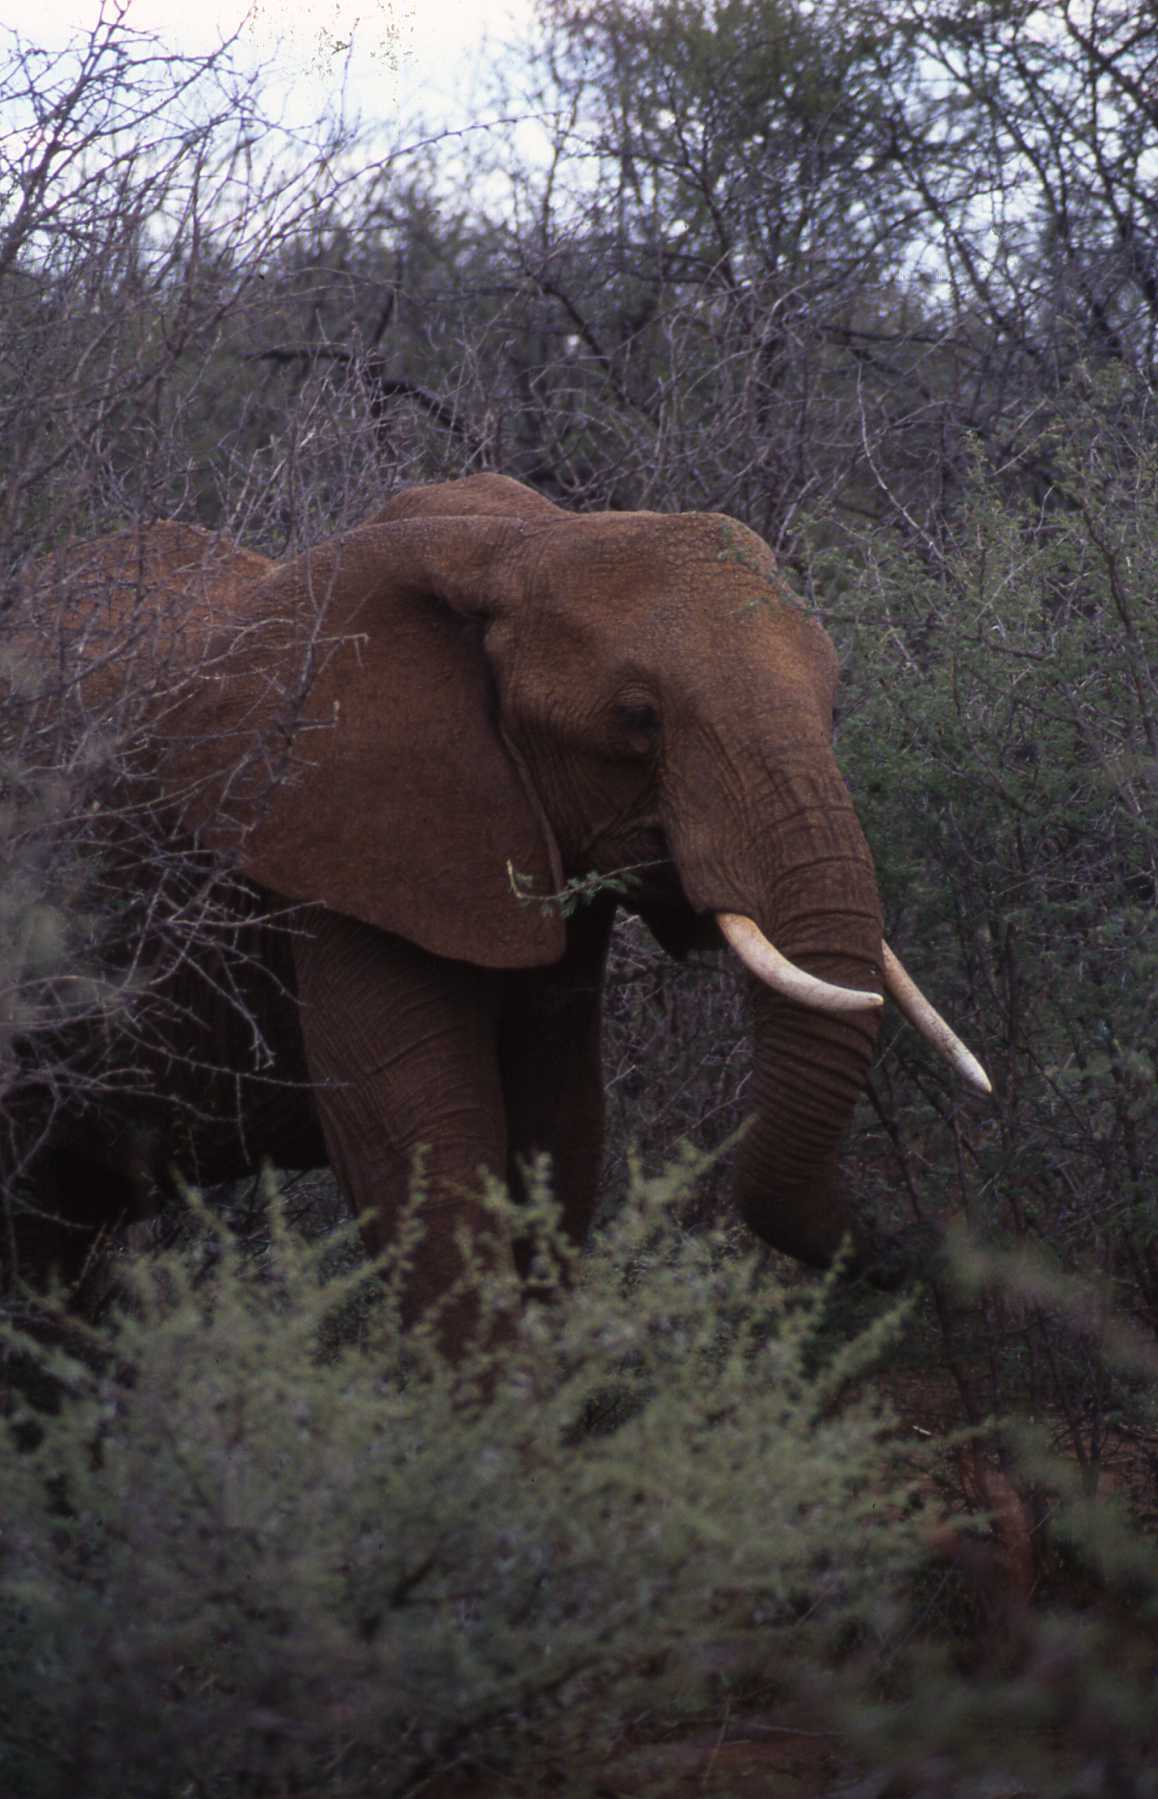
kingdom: Animalia
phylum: Chordata
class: Mammalia
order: Proboscidea
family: Elephantidae
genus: Loxodonta
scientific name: Loxodonta africana
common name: African elephant
